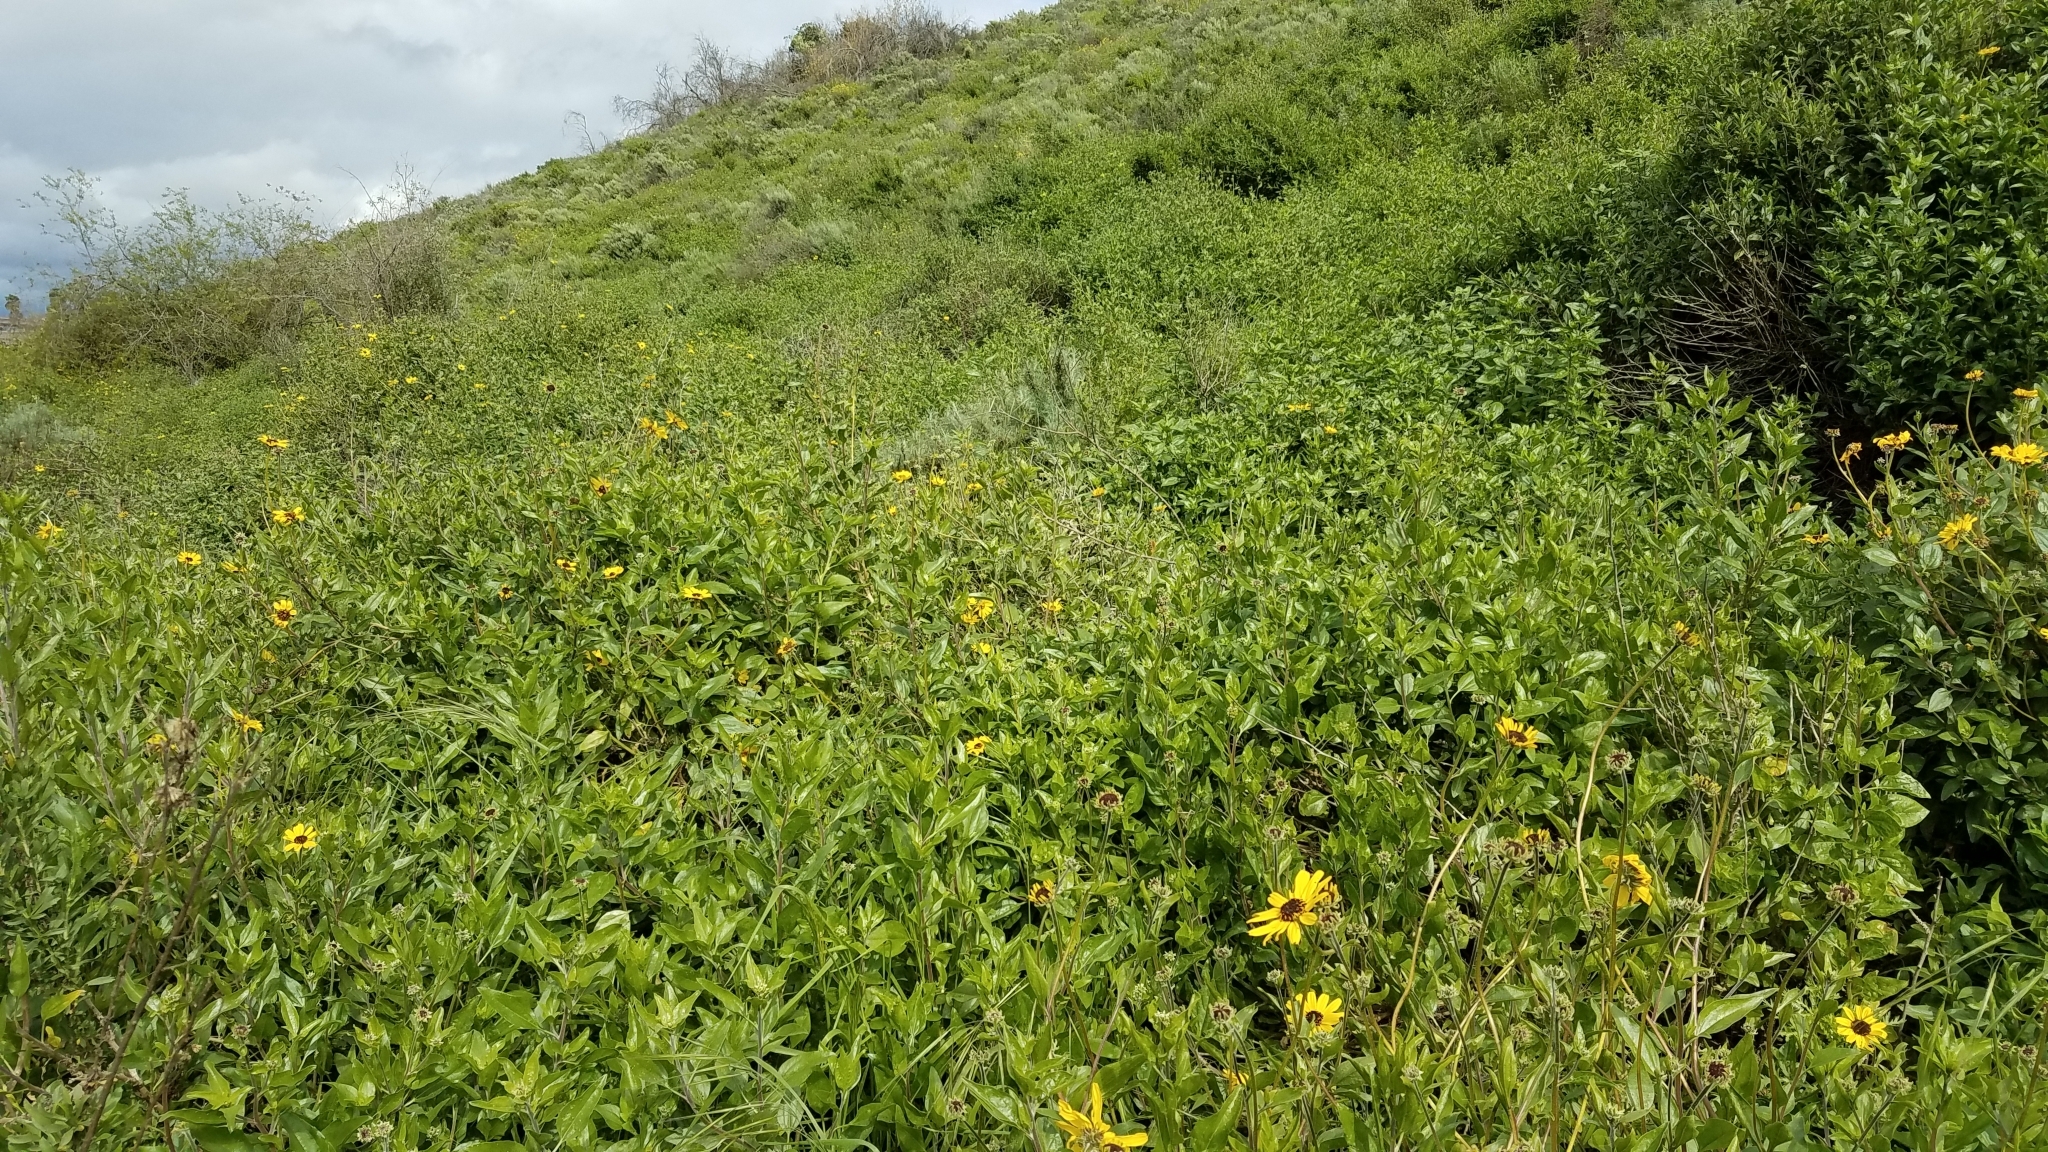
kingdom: Plantae
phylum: Tracheophyta
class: Magnoliopsida
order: Asterales
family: Asteraceae
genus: Encelia
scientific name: Encelia californica
